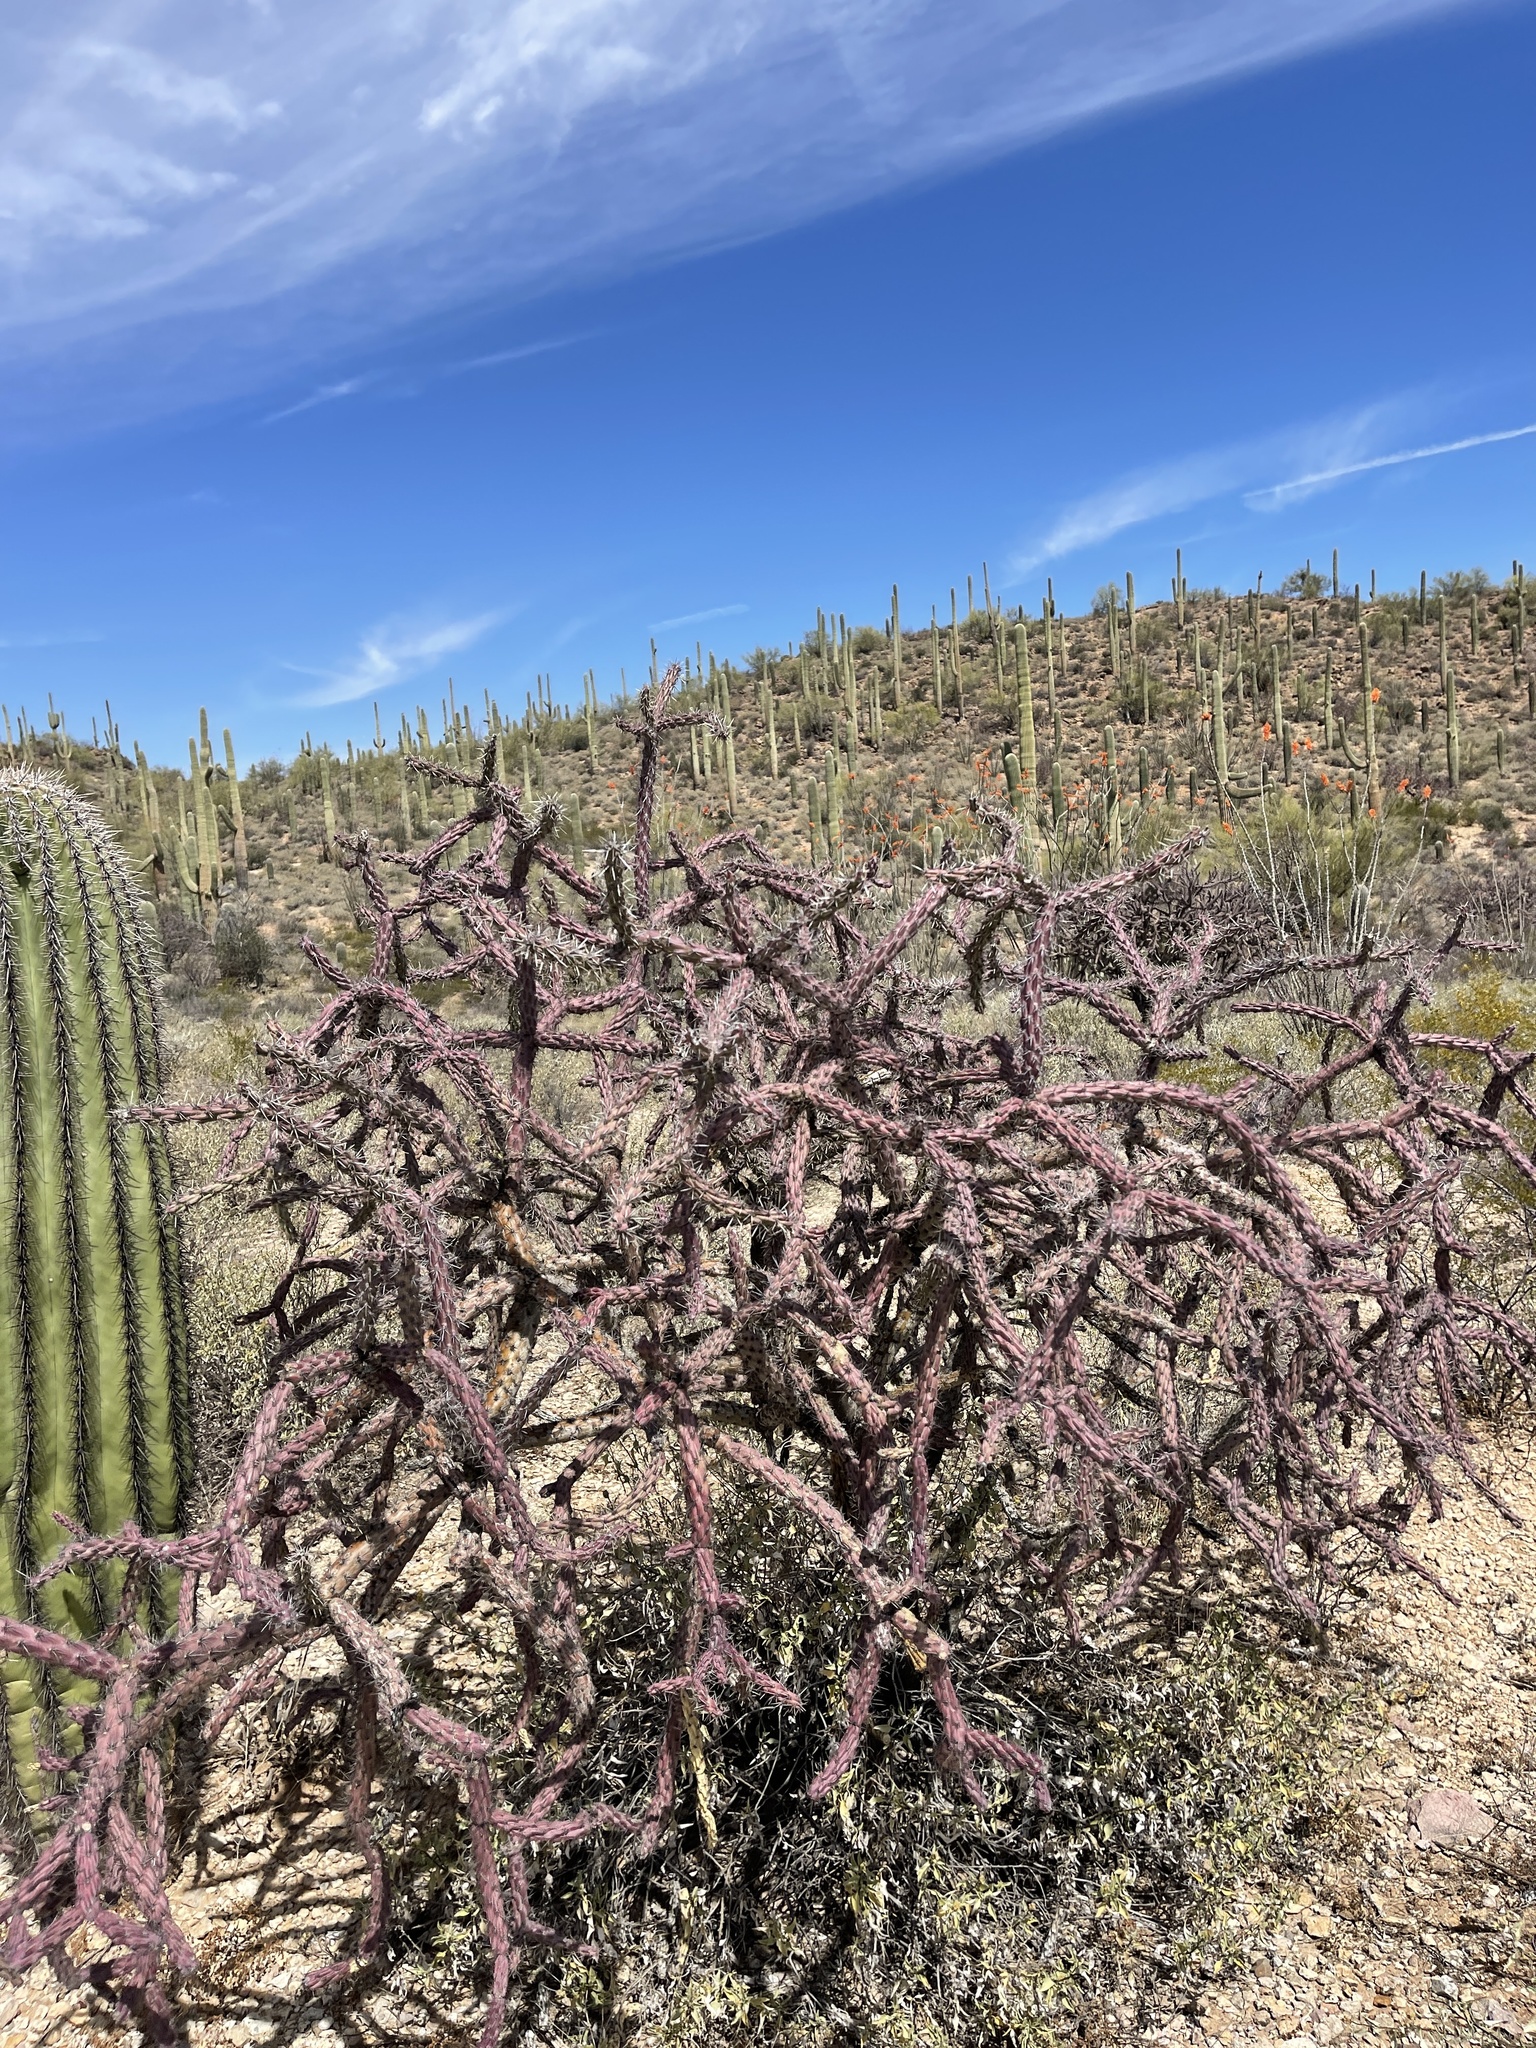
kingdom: Plantae
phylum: Tracheophyta
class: Magnoliopsida
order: Caryophyllales
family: Cactaceae
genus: Cylindropuntia
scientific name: Cylindropuntia thurberi
